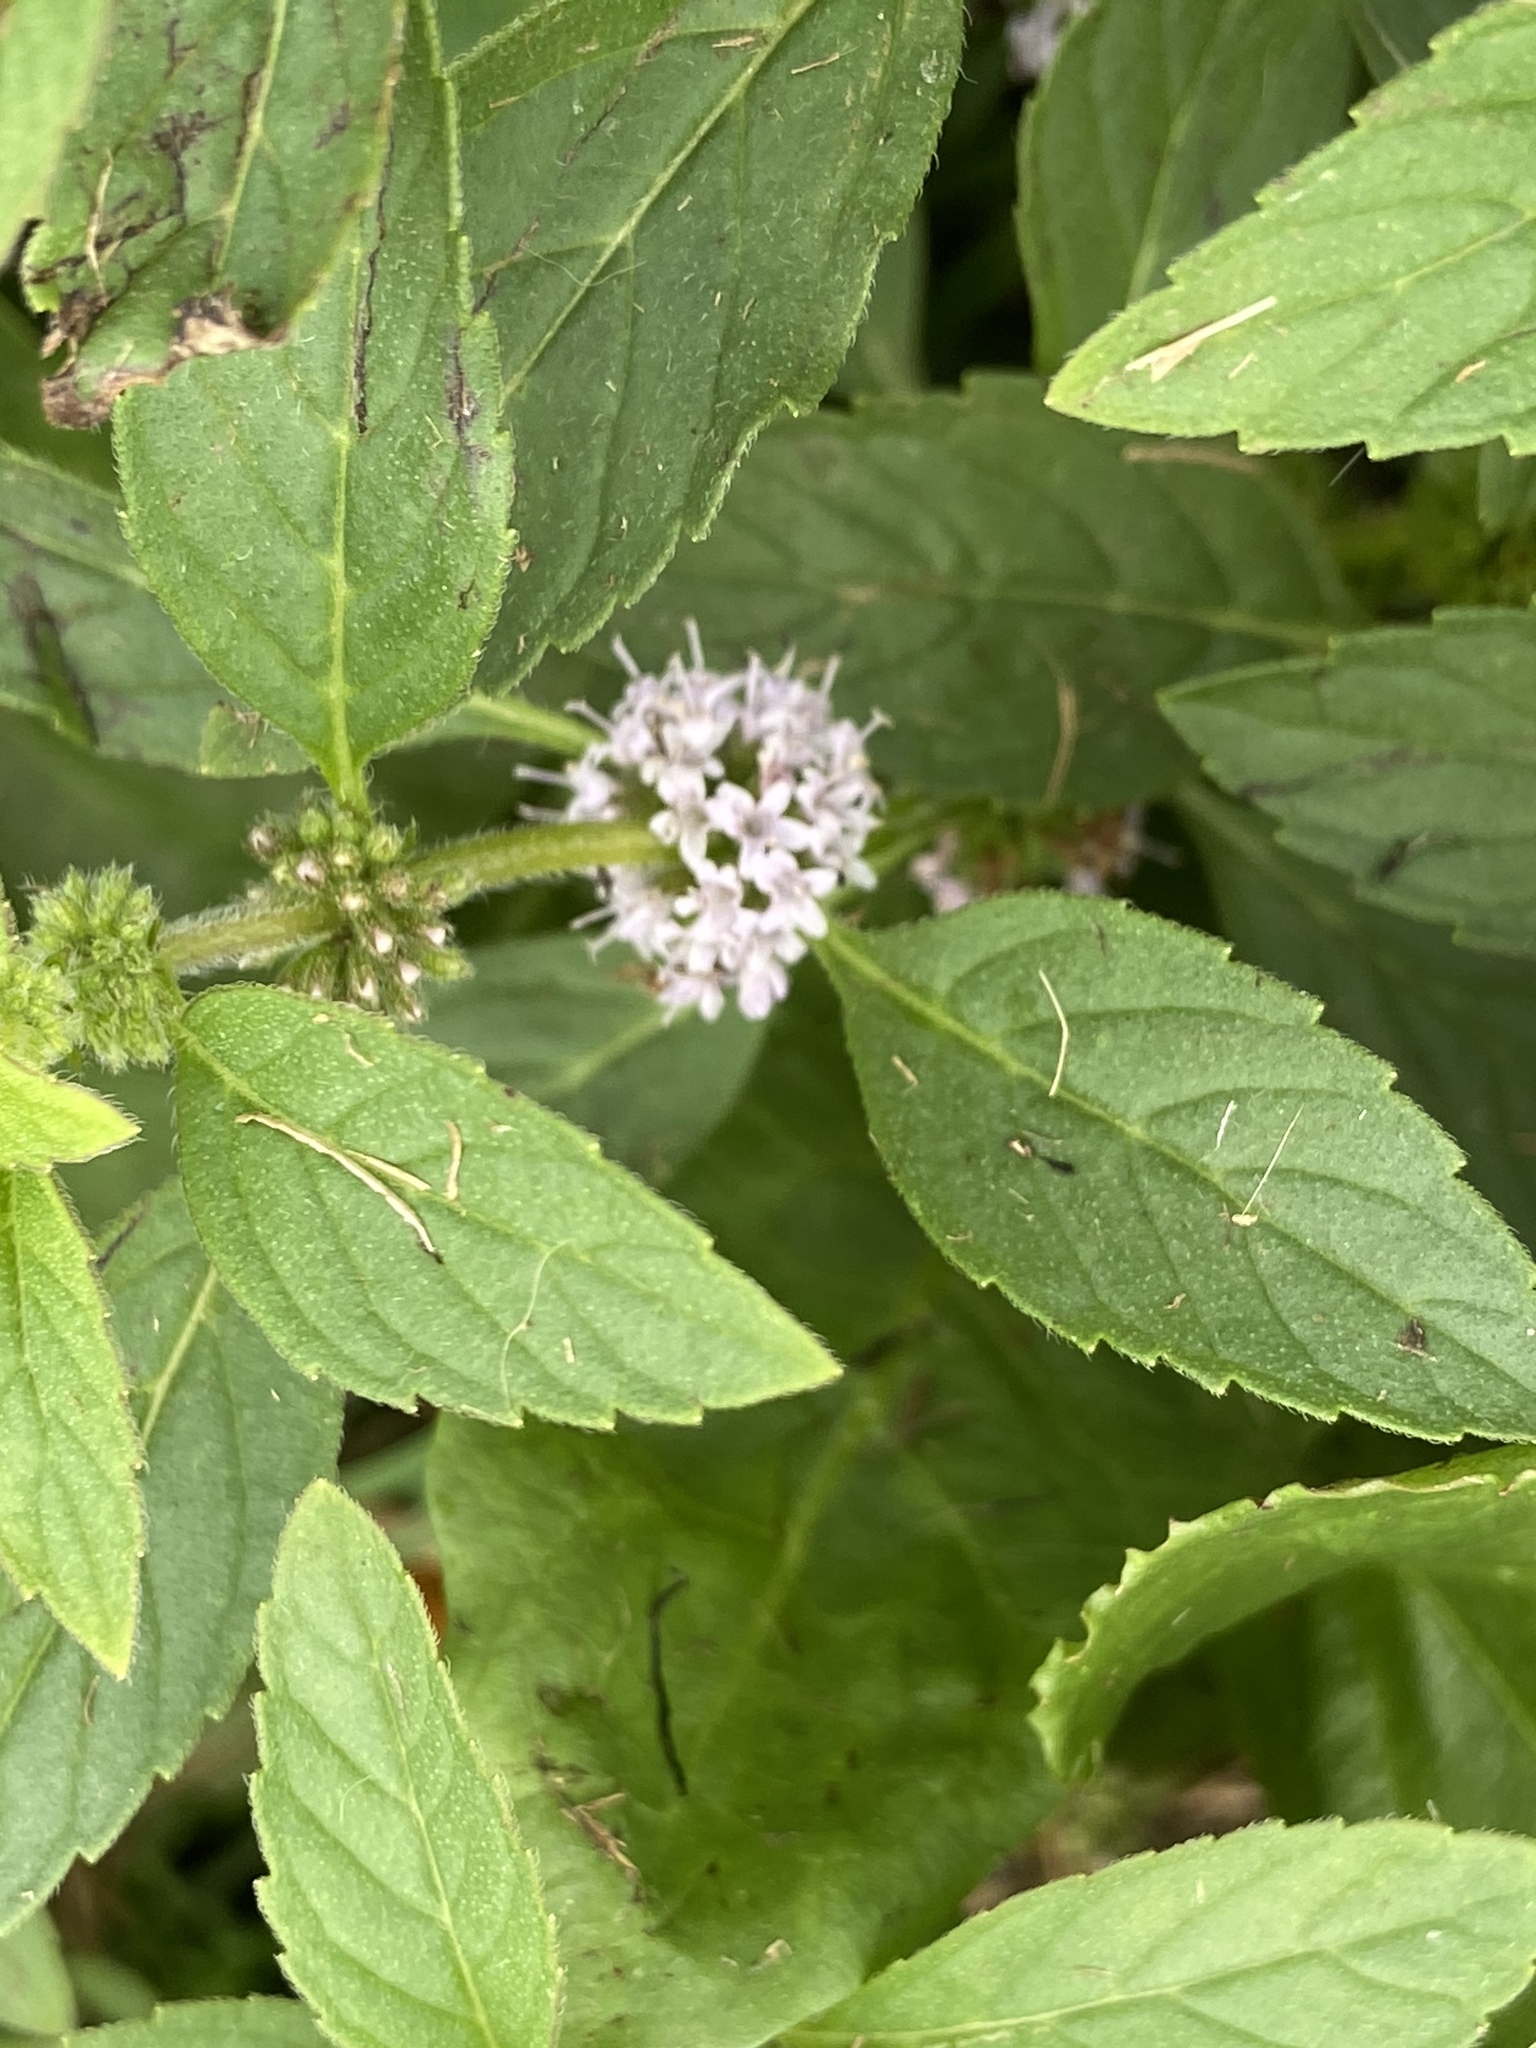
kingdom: Plantae
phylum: Tracheophyta
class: Magnoliopsida
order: Lamiales
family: Lamiaceae
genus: Mentha
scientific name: Mentha canadensis
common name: American corn mint
